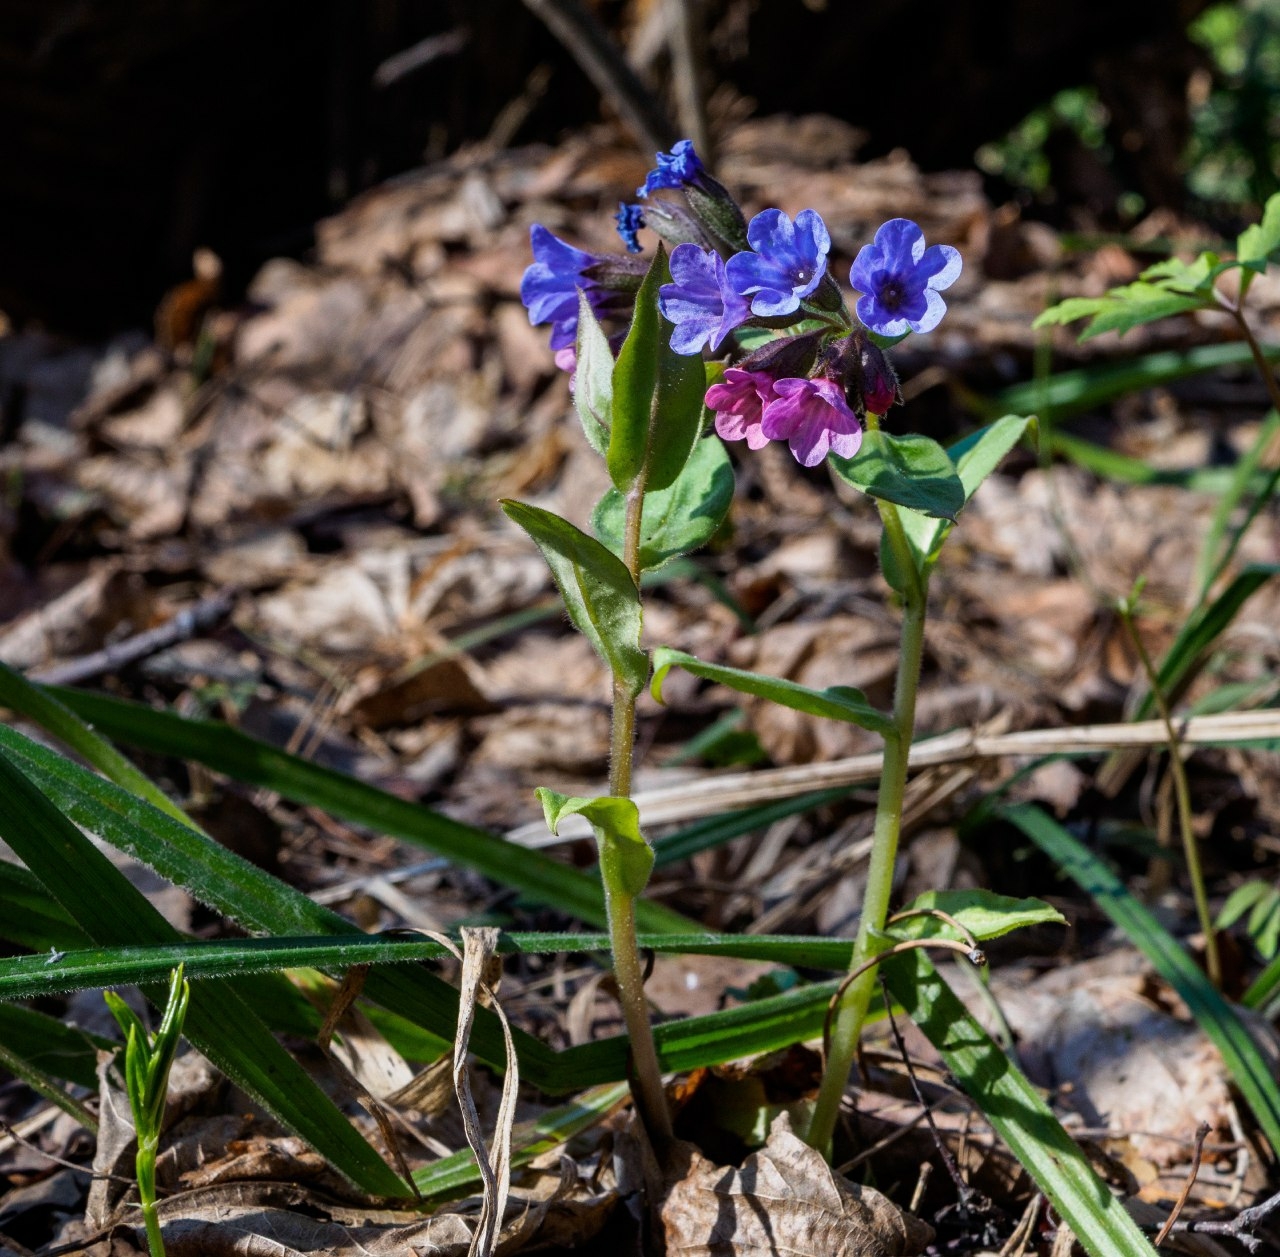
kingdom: Plantae
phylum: Tracheophyta
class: Magnoliopsida
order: Boraginales
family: Boraginaceae
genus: Pulmonaria
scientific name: Pulmonaria obscura
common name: Suffolk lungwort
